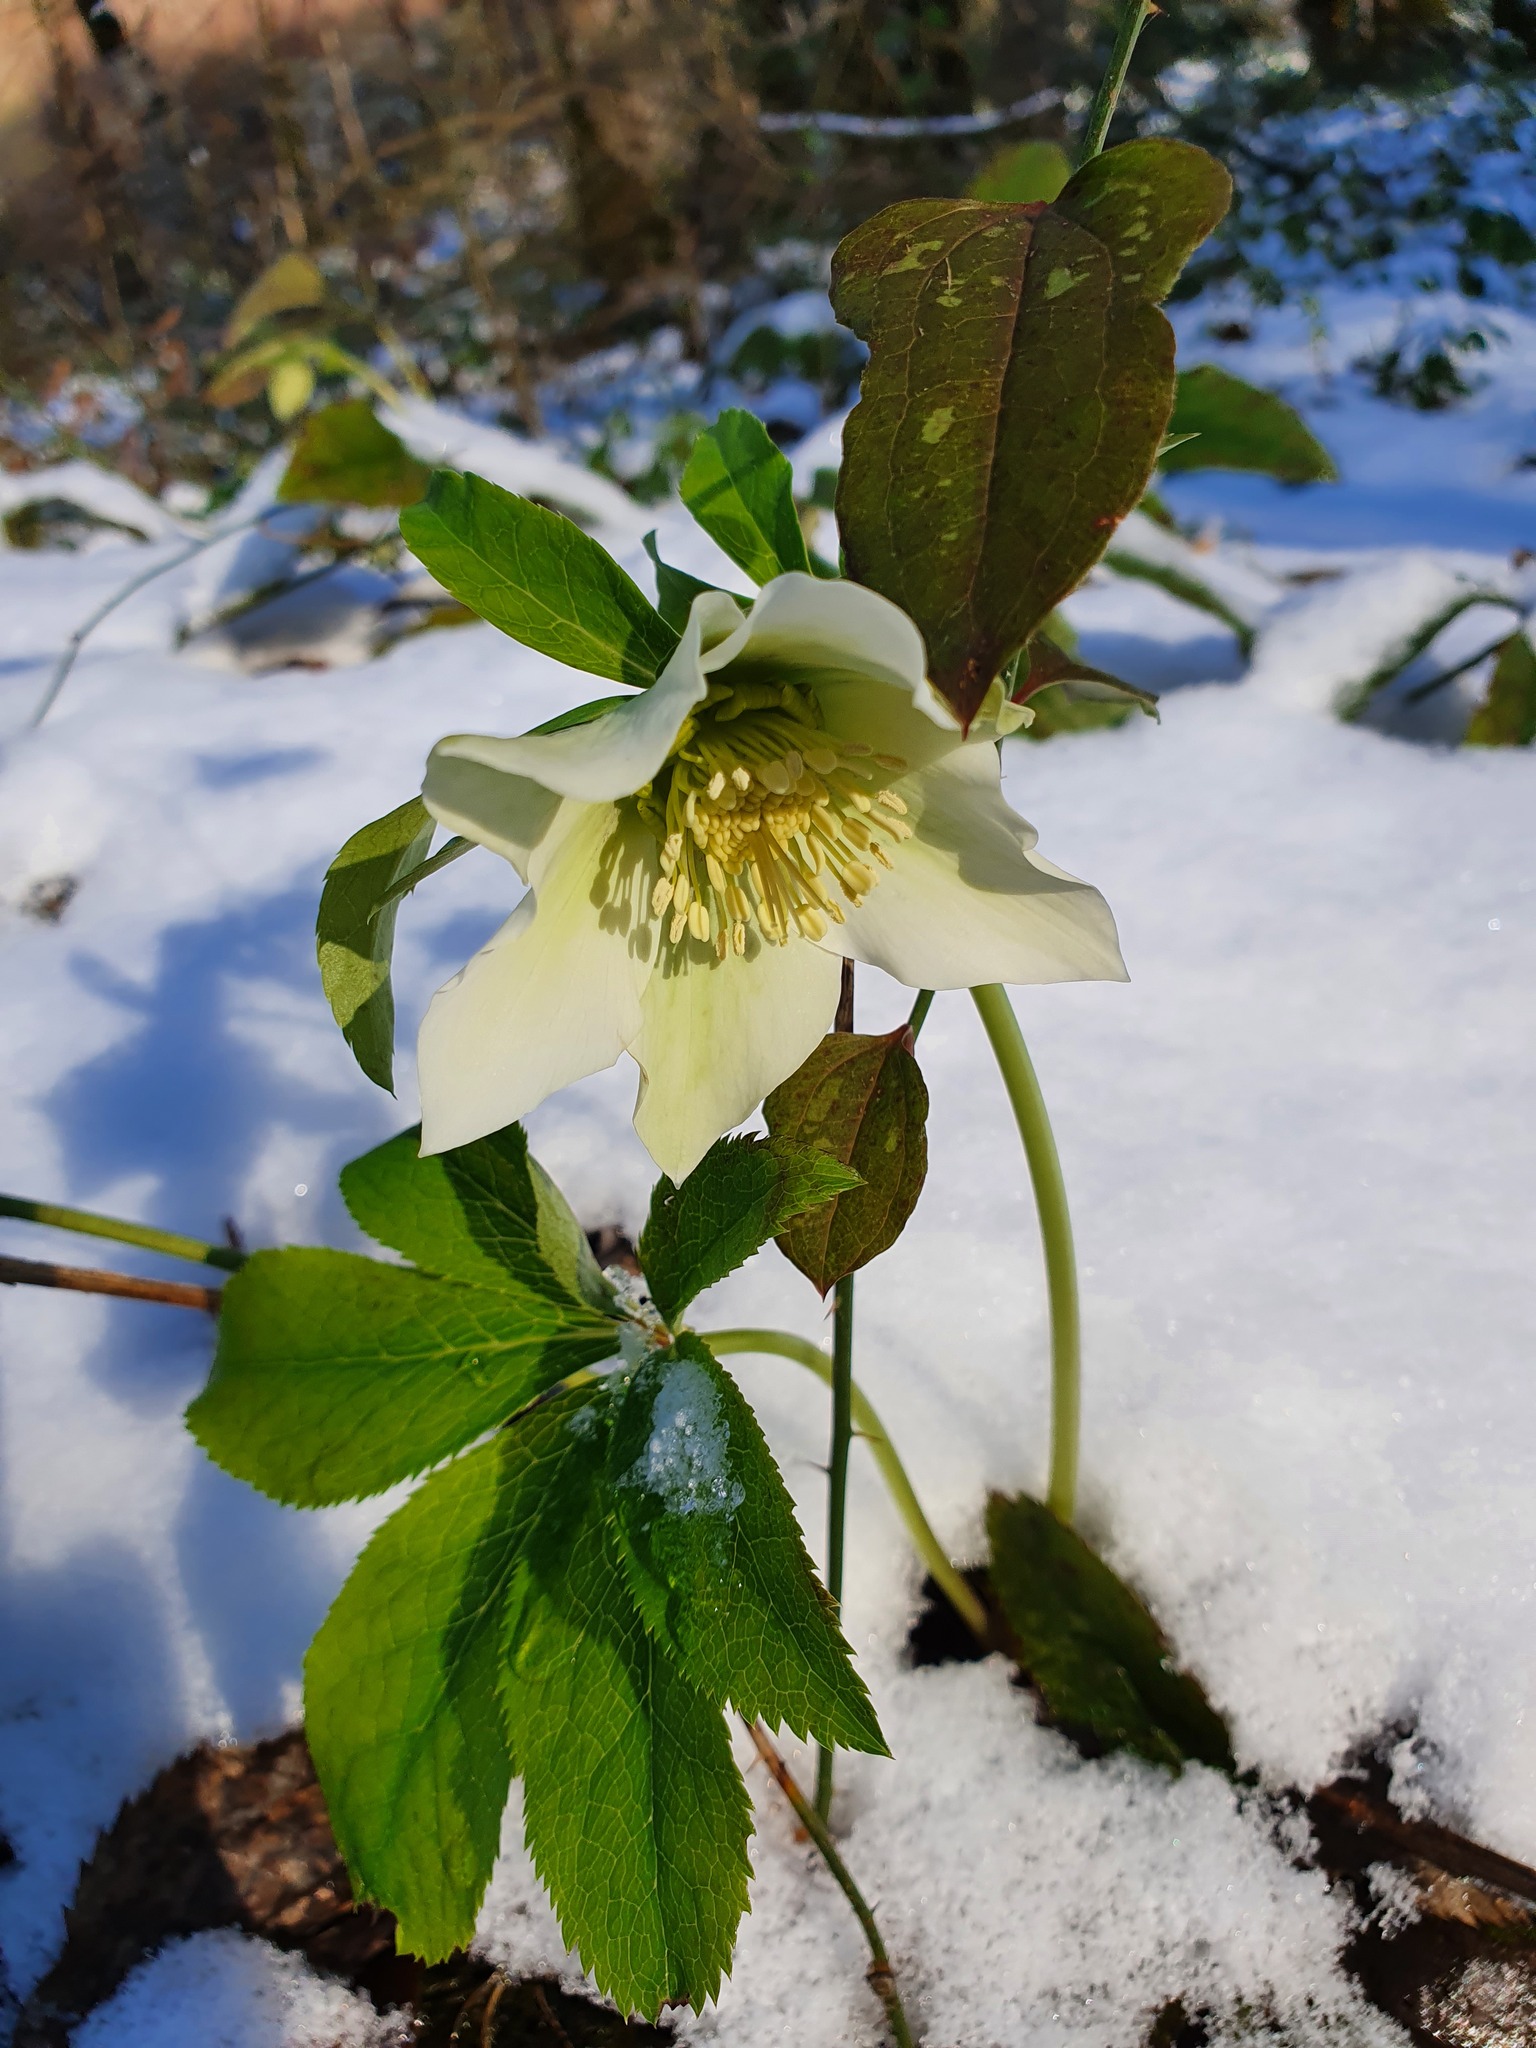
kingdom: Plantae
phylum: Tracheophyta
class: Magnoliopsida
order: Ranunculales
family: Ranunculaceae
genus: Helleborus
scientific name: Helleborus orientalis
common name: Lenten-rose
